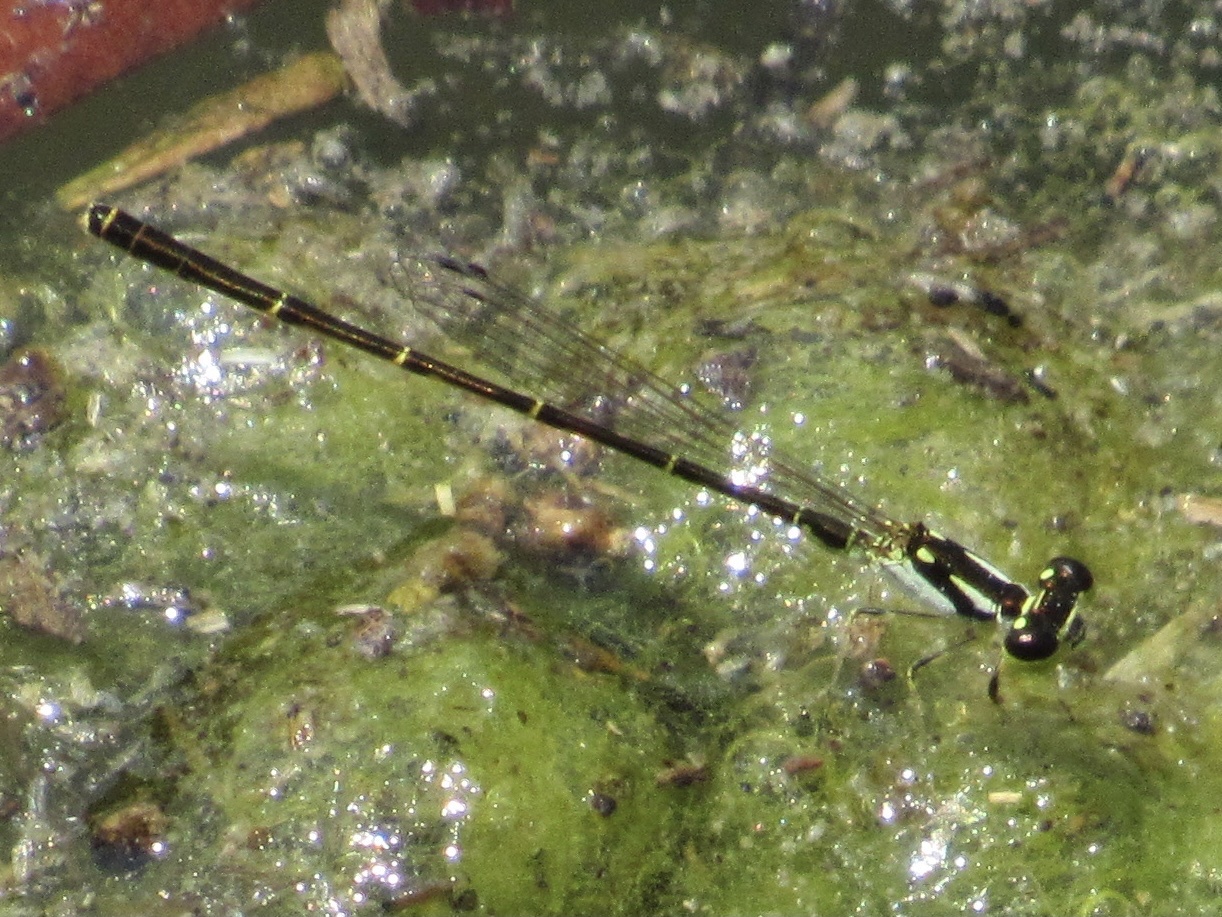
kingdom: Animalia
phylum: Arthropoda
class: Insecta
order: Odonata
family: Coenagrionidae
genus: Ischnura
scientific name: Ischnura posita
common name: Fragile forktail
